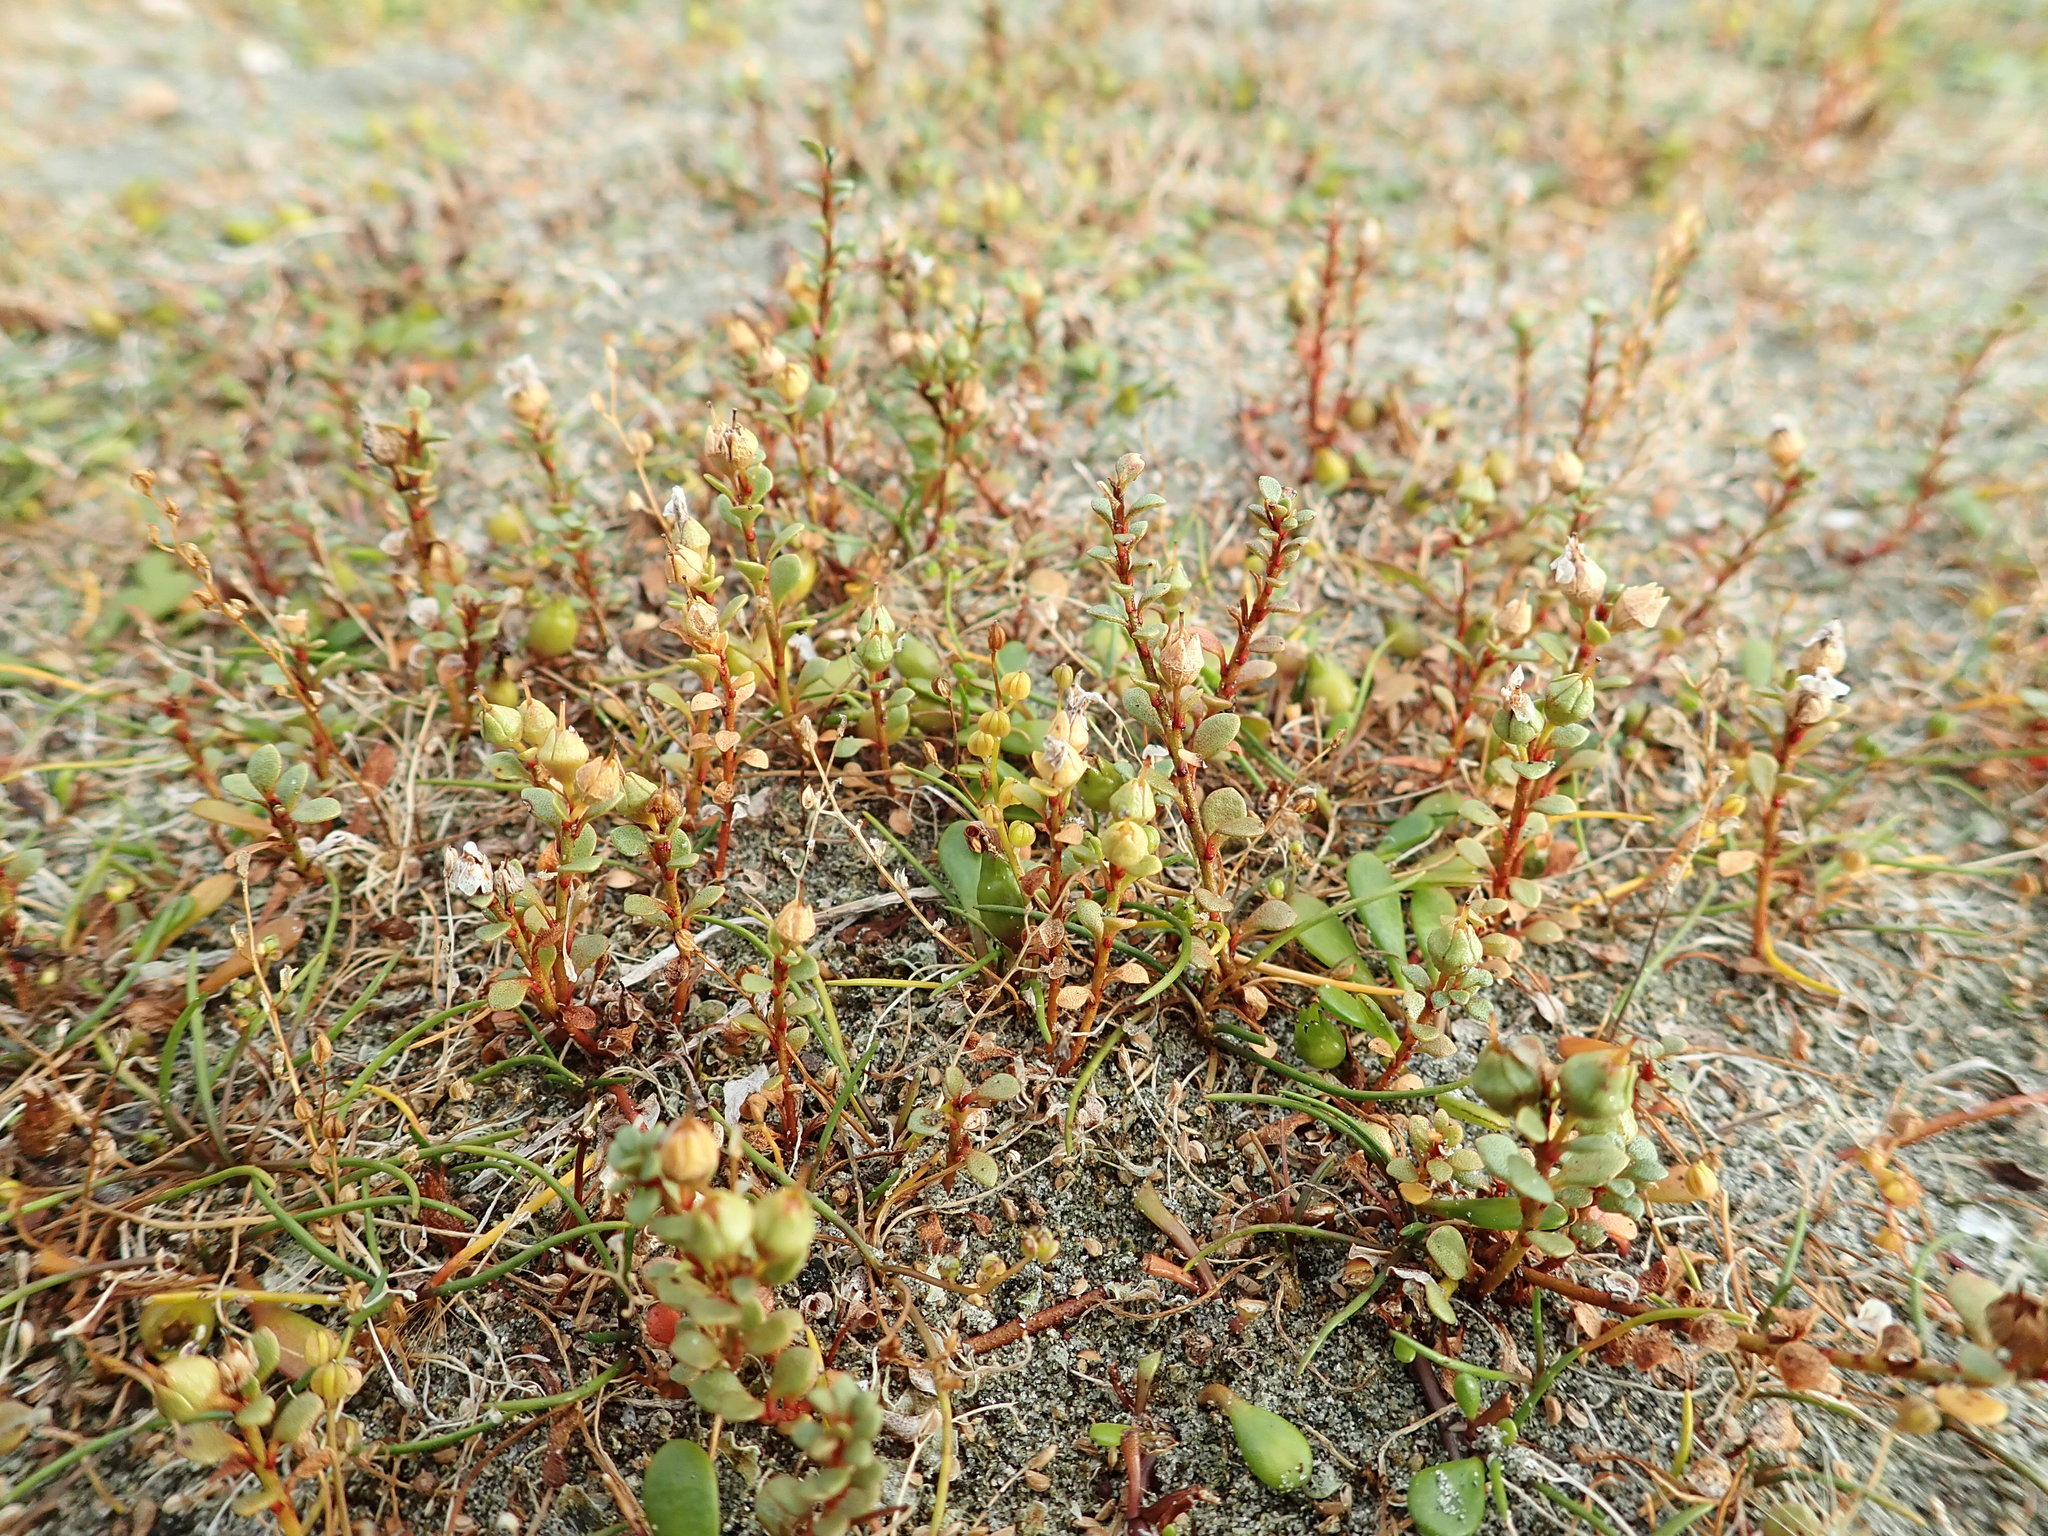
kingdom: Plantae
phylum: Tracheophyta
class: Magnoliopsida
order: Ericales
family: Primulaceae
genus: Samolus
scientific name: Samolus repens
